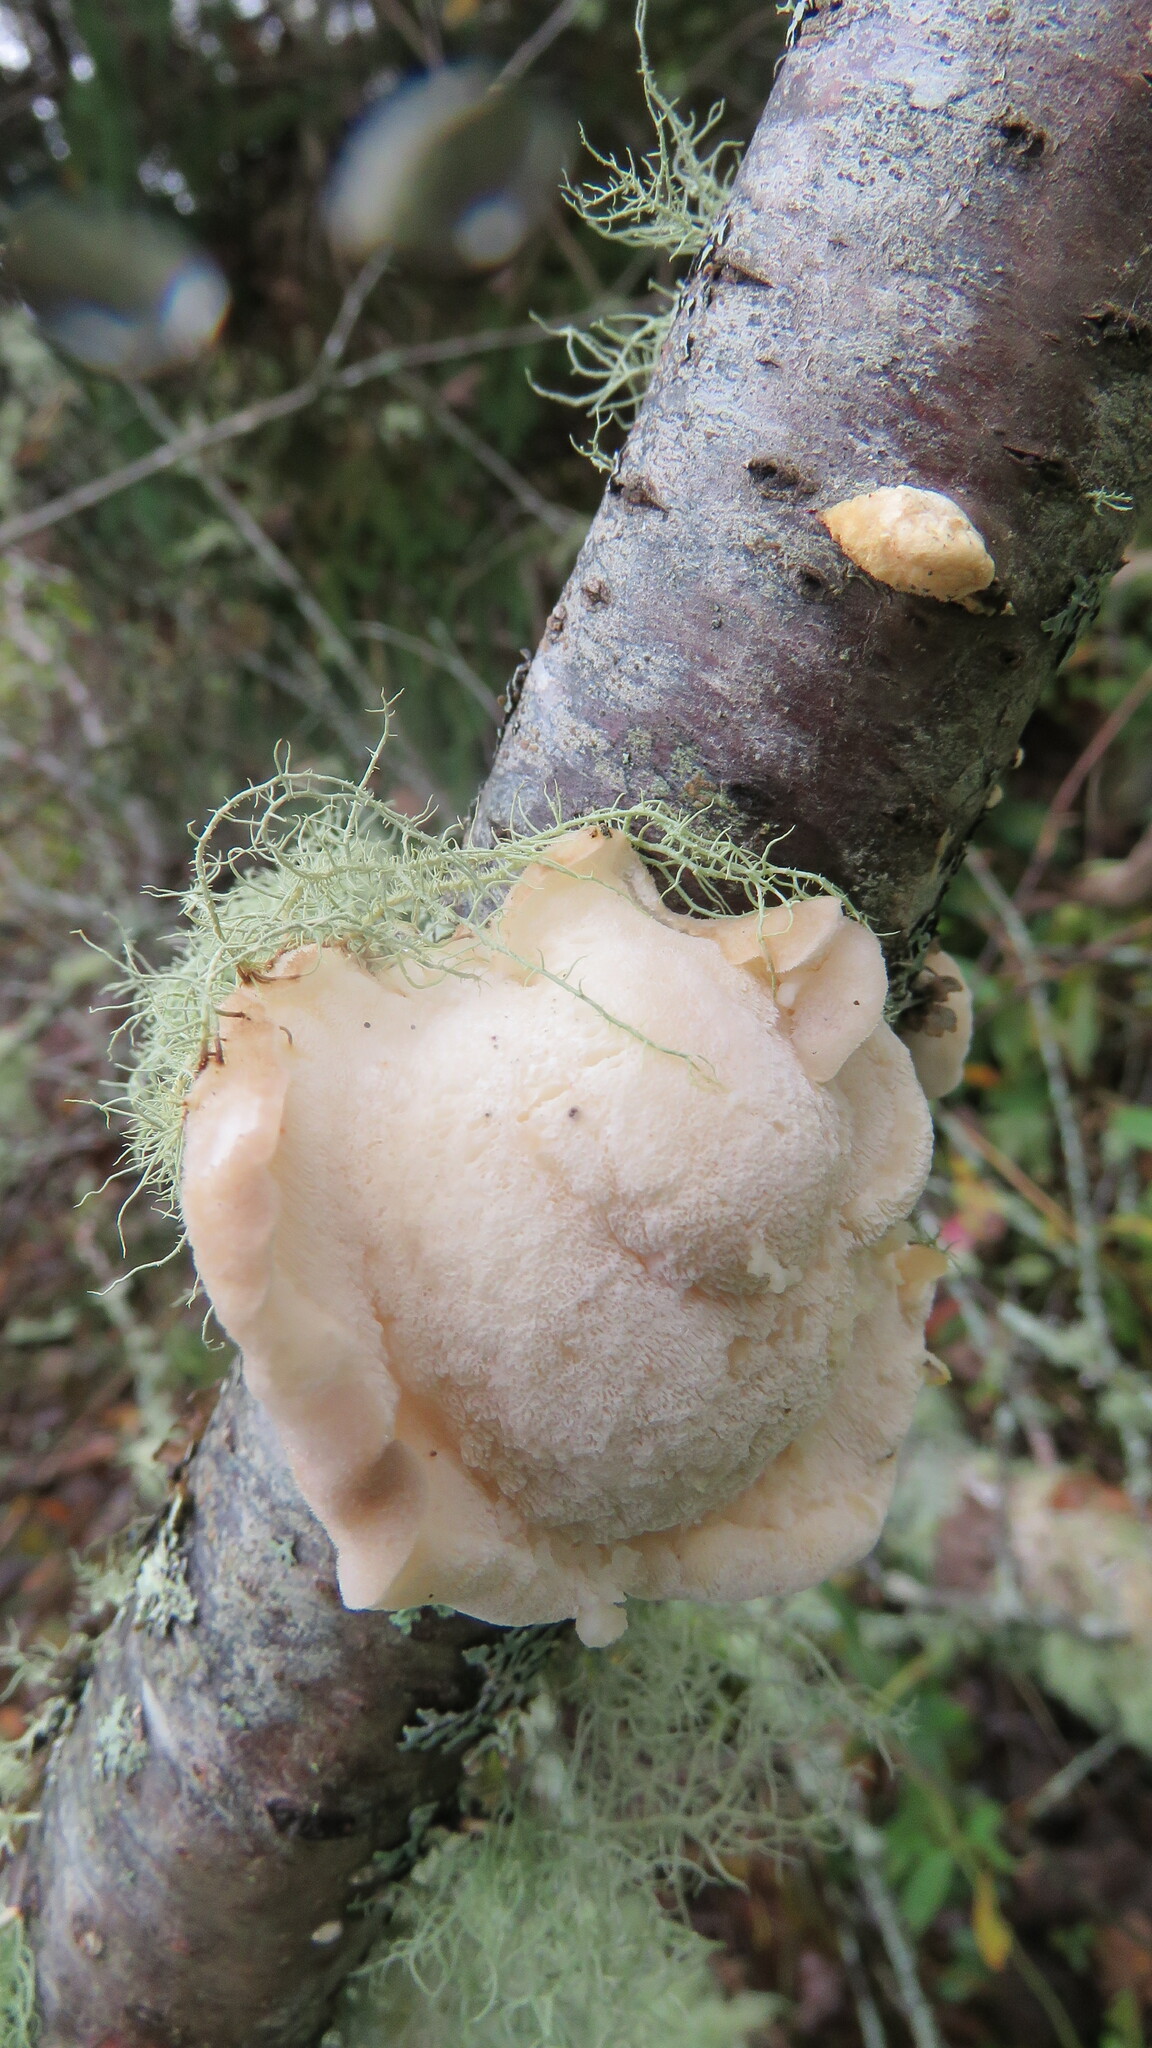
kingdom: Fungi
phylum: Basidiomycota
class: Agaricomycetes
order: Polyporales
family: Incrustoporiaceae
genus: Tyromyces
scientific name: Tyromyces chioneus
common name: White cheese polypore
